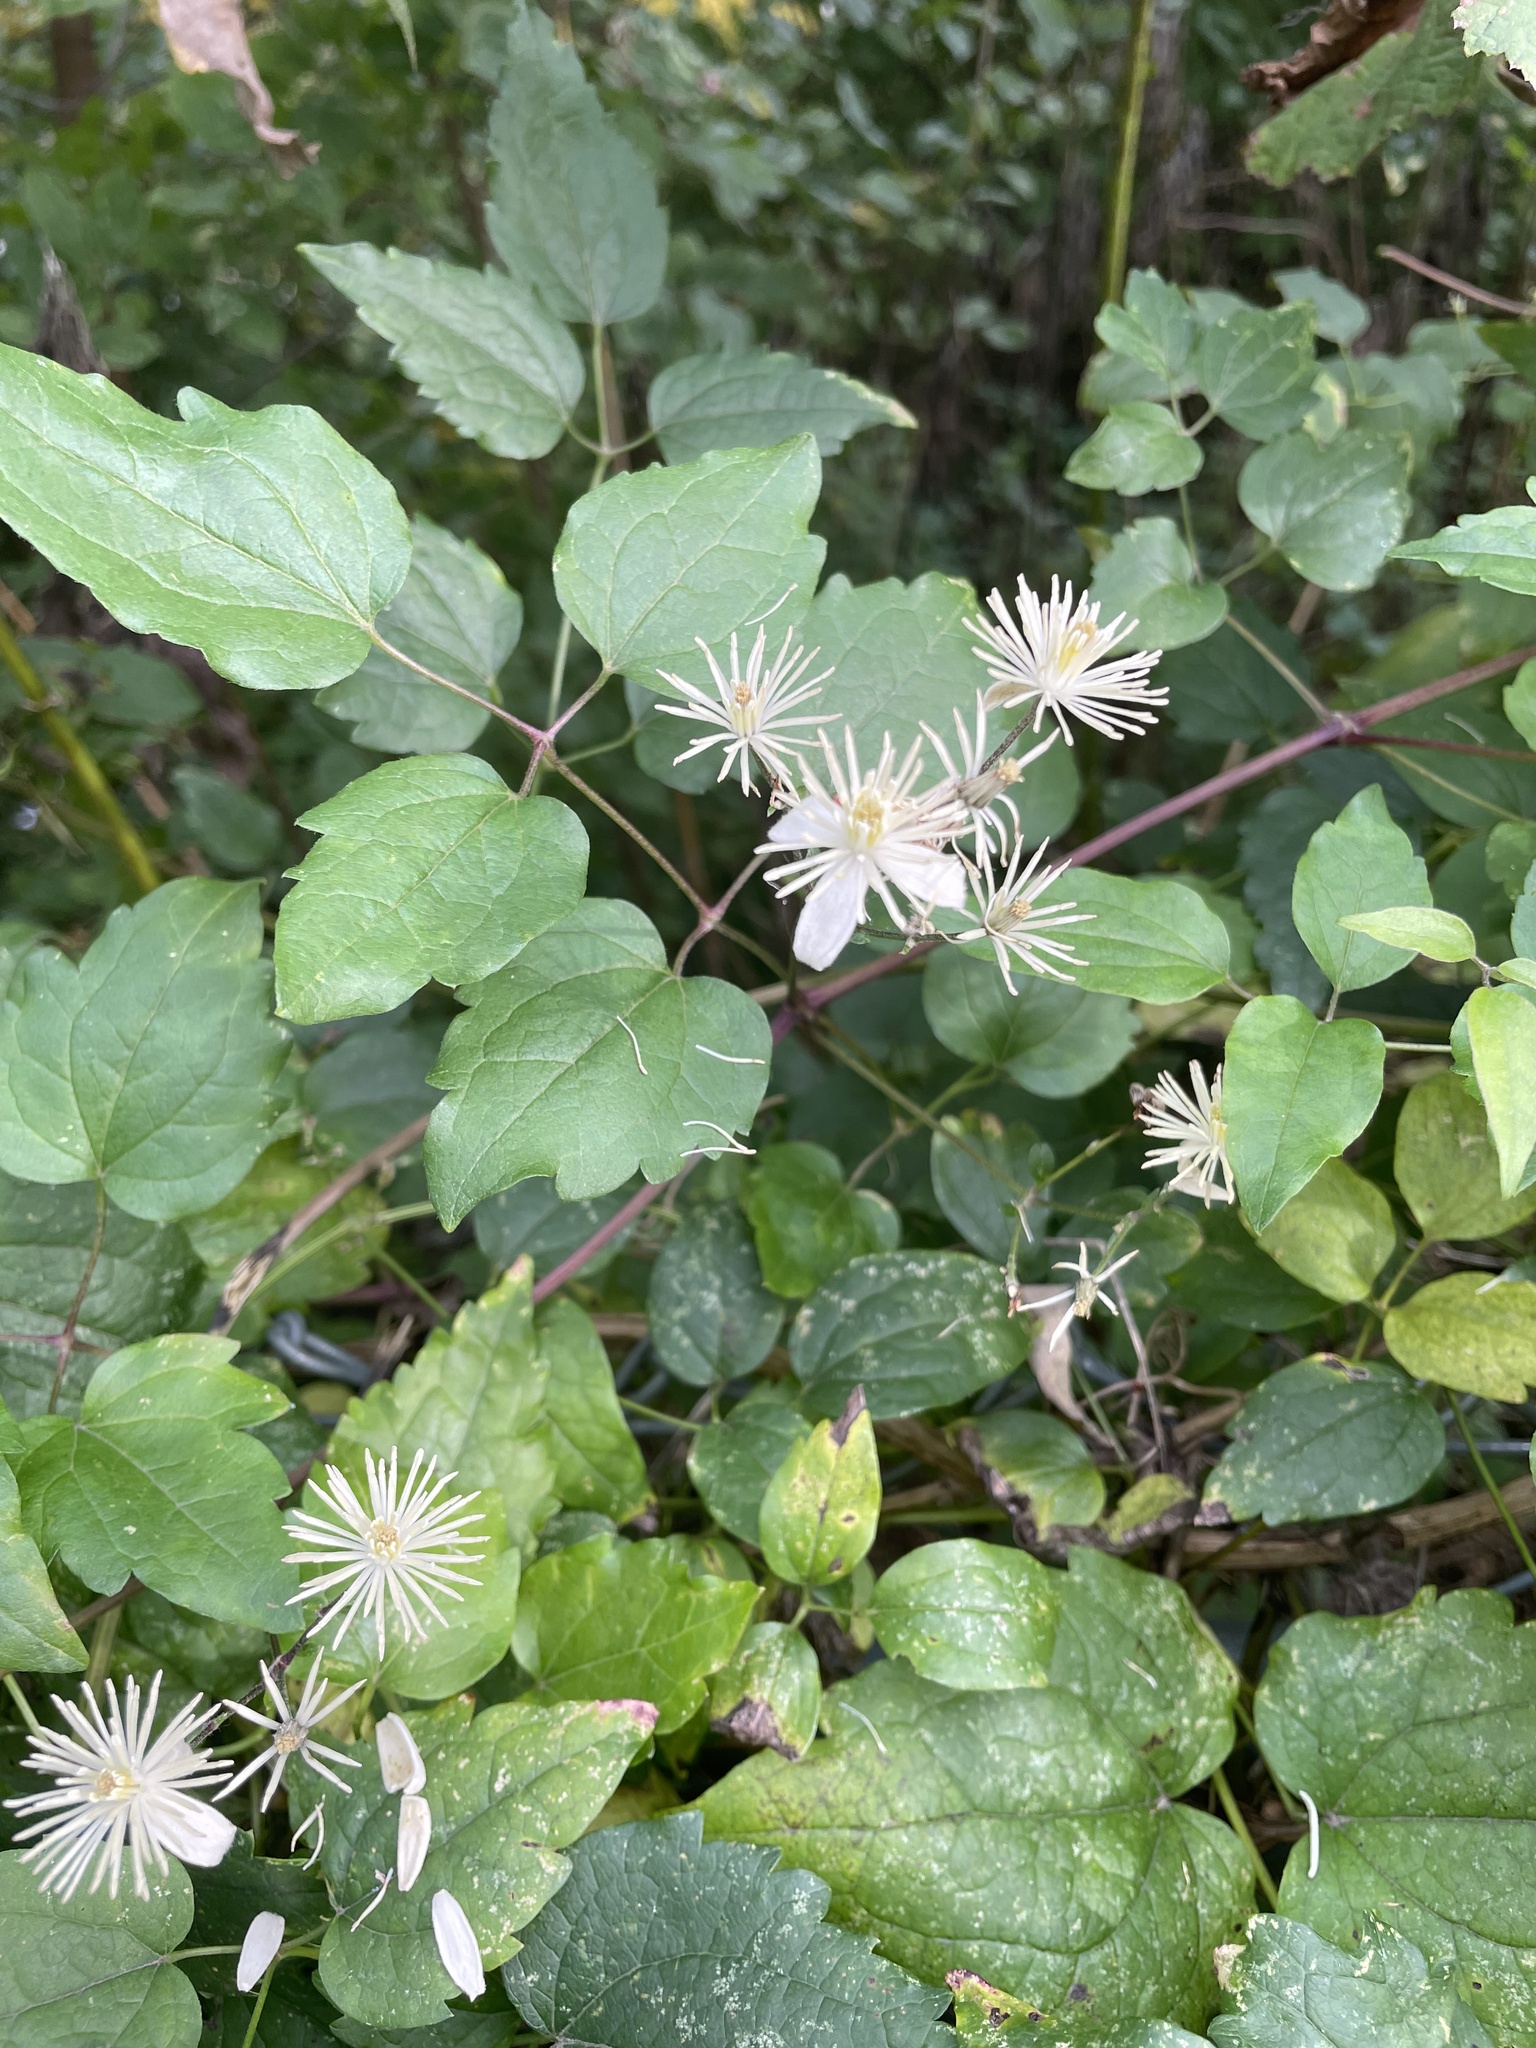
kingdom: Plantae
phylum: Tracheophyta
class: Magnoliopsida
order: Ranunculales
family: Ranunculaceae
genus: Clematis
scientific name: Clematis vitalba
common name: Evergreen clematis
